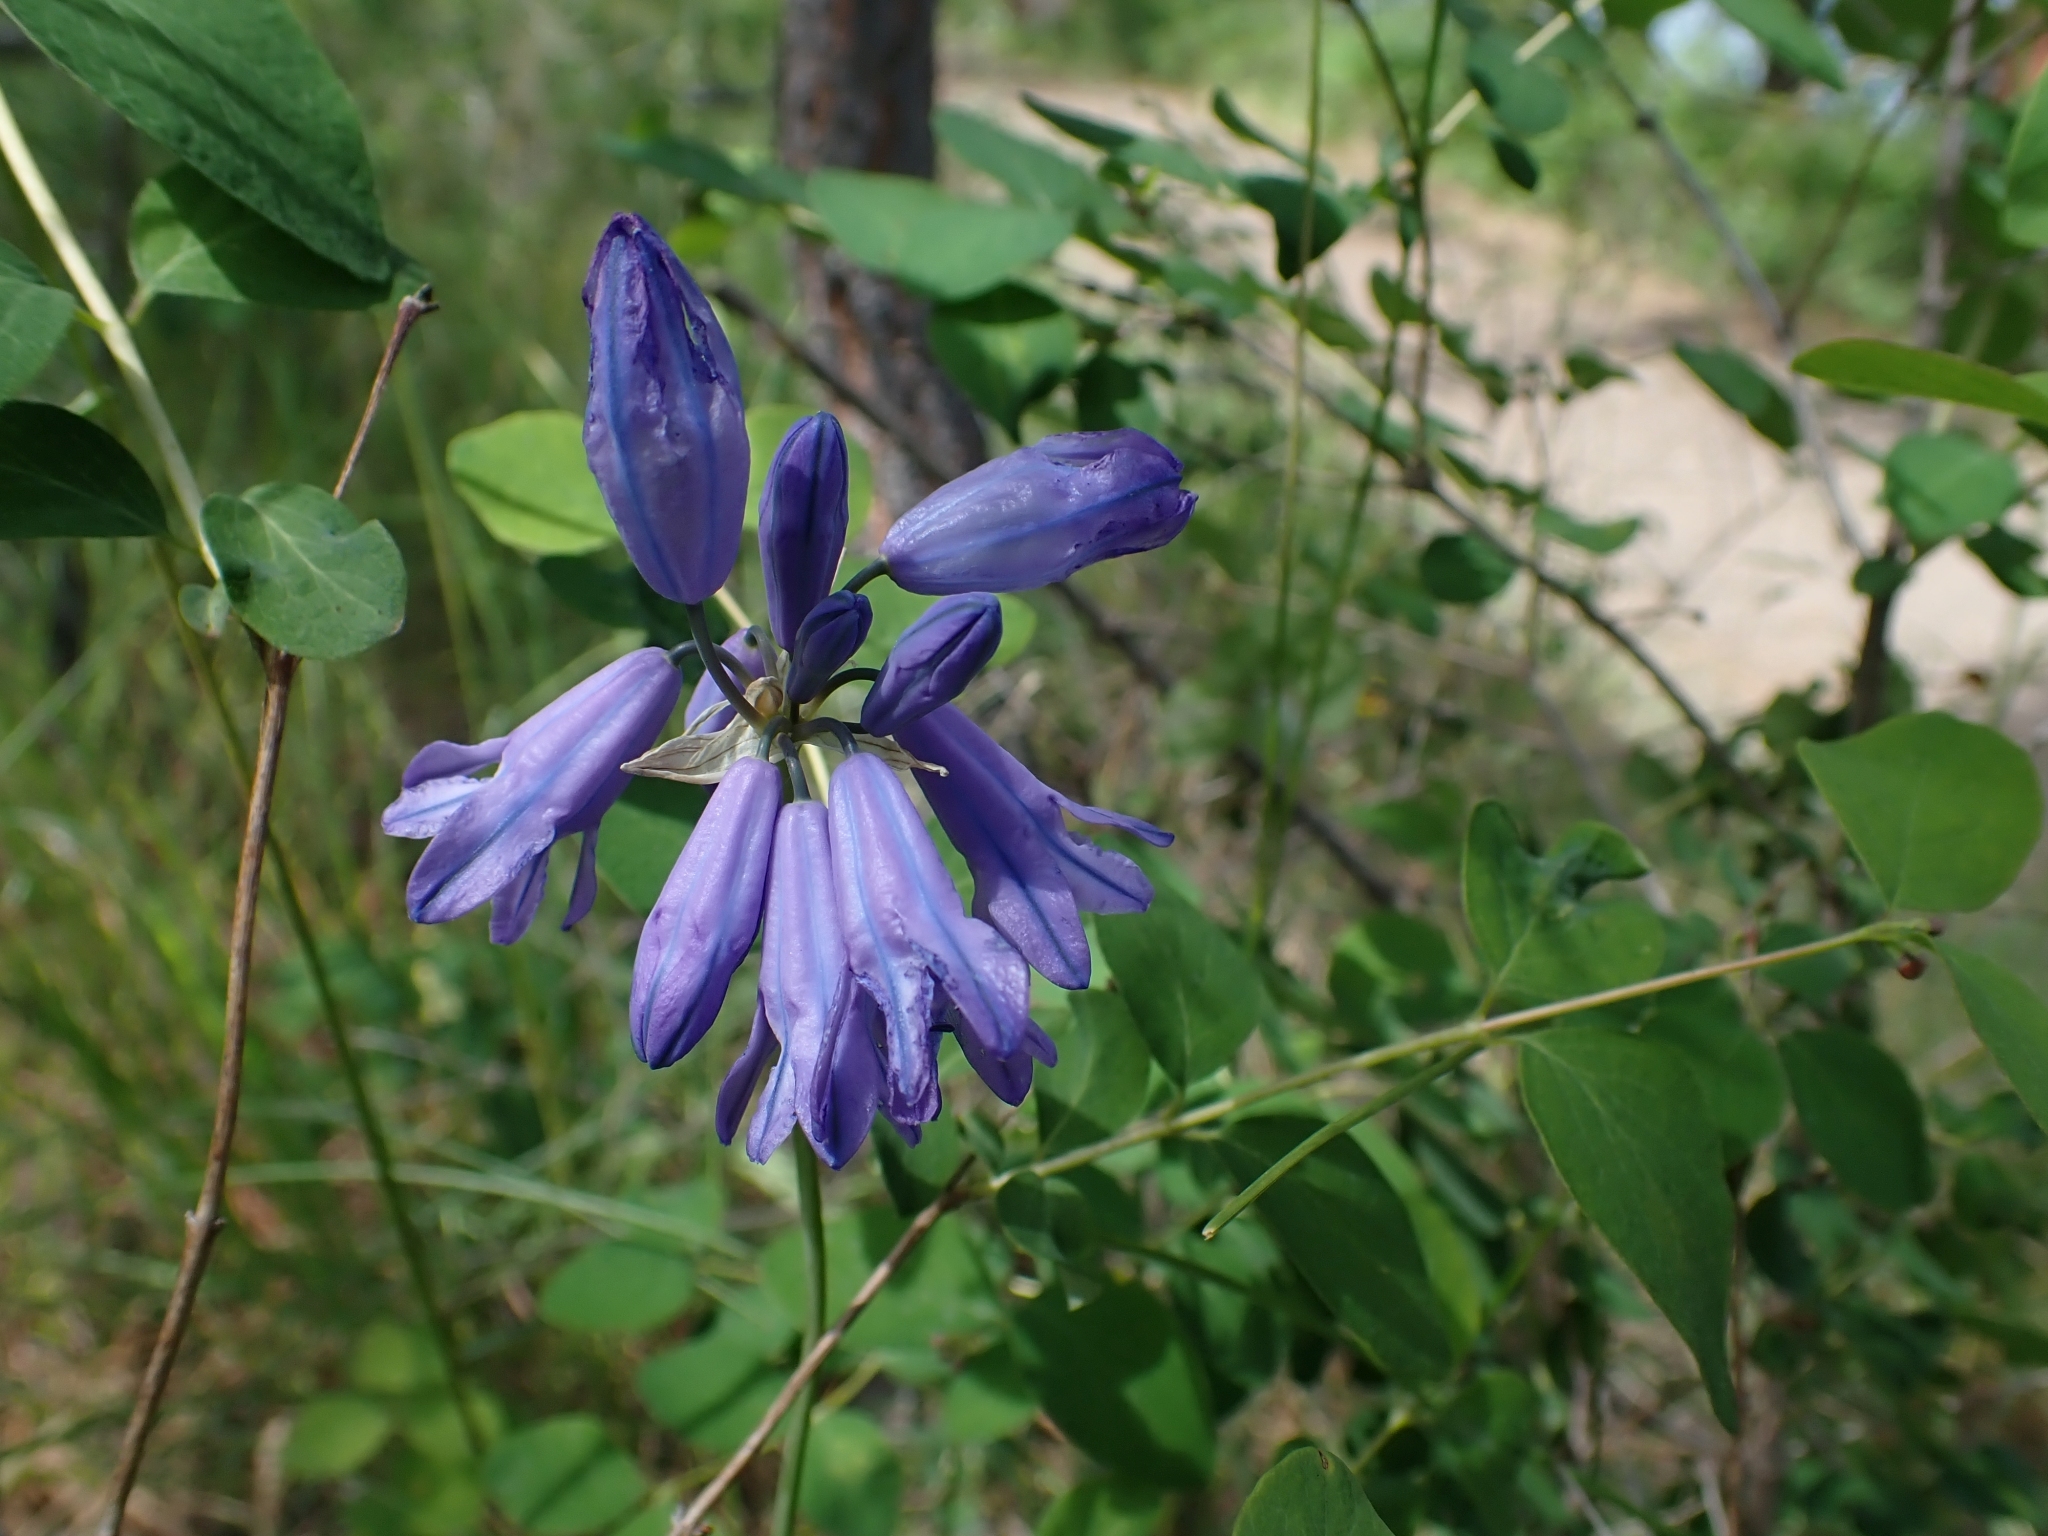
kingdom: Plantae
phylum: Tracheophyta
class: Liliopsida
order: Asparagales
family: Asparagaceae
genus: Triteleia
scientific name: Triteleia grandiflora
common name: Wild hyacinth
